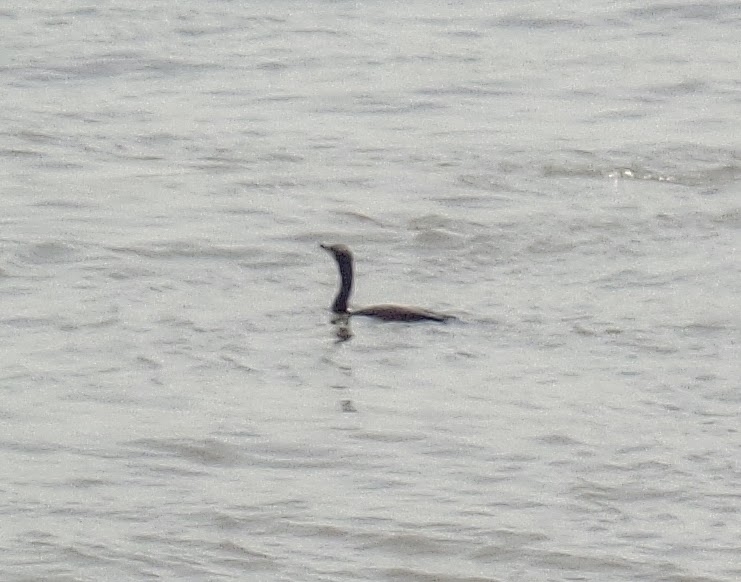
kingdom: Animalia
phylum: Chordata
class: Aves
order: Suliformes
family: Phalacrocoracidae
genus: Phalacrocorax
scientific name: Phalacrocorax carbo
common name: Great cormorant
